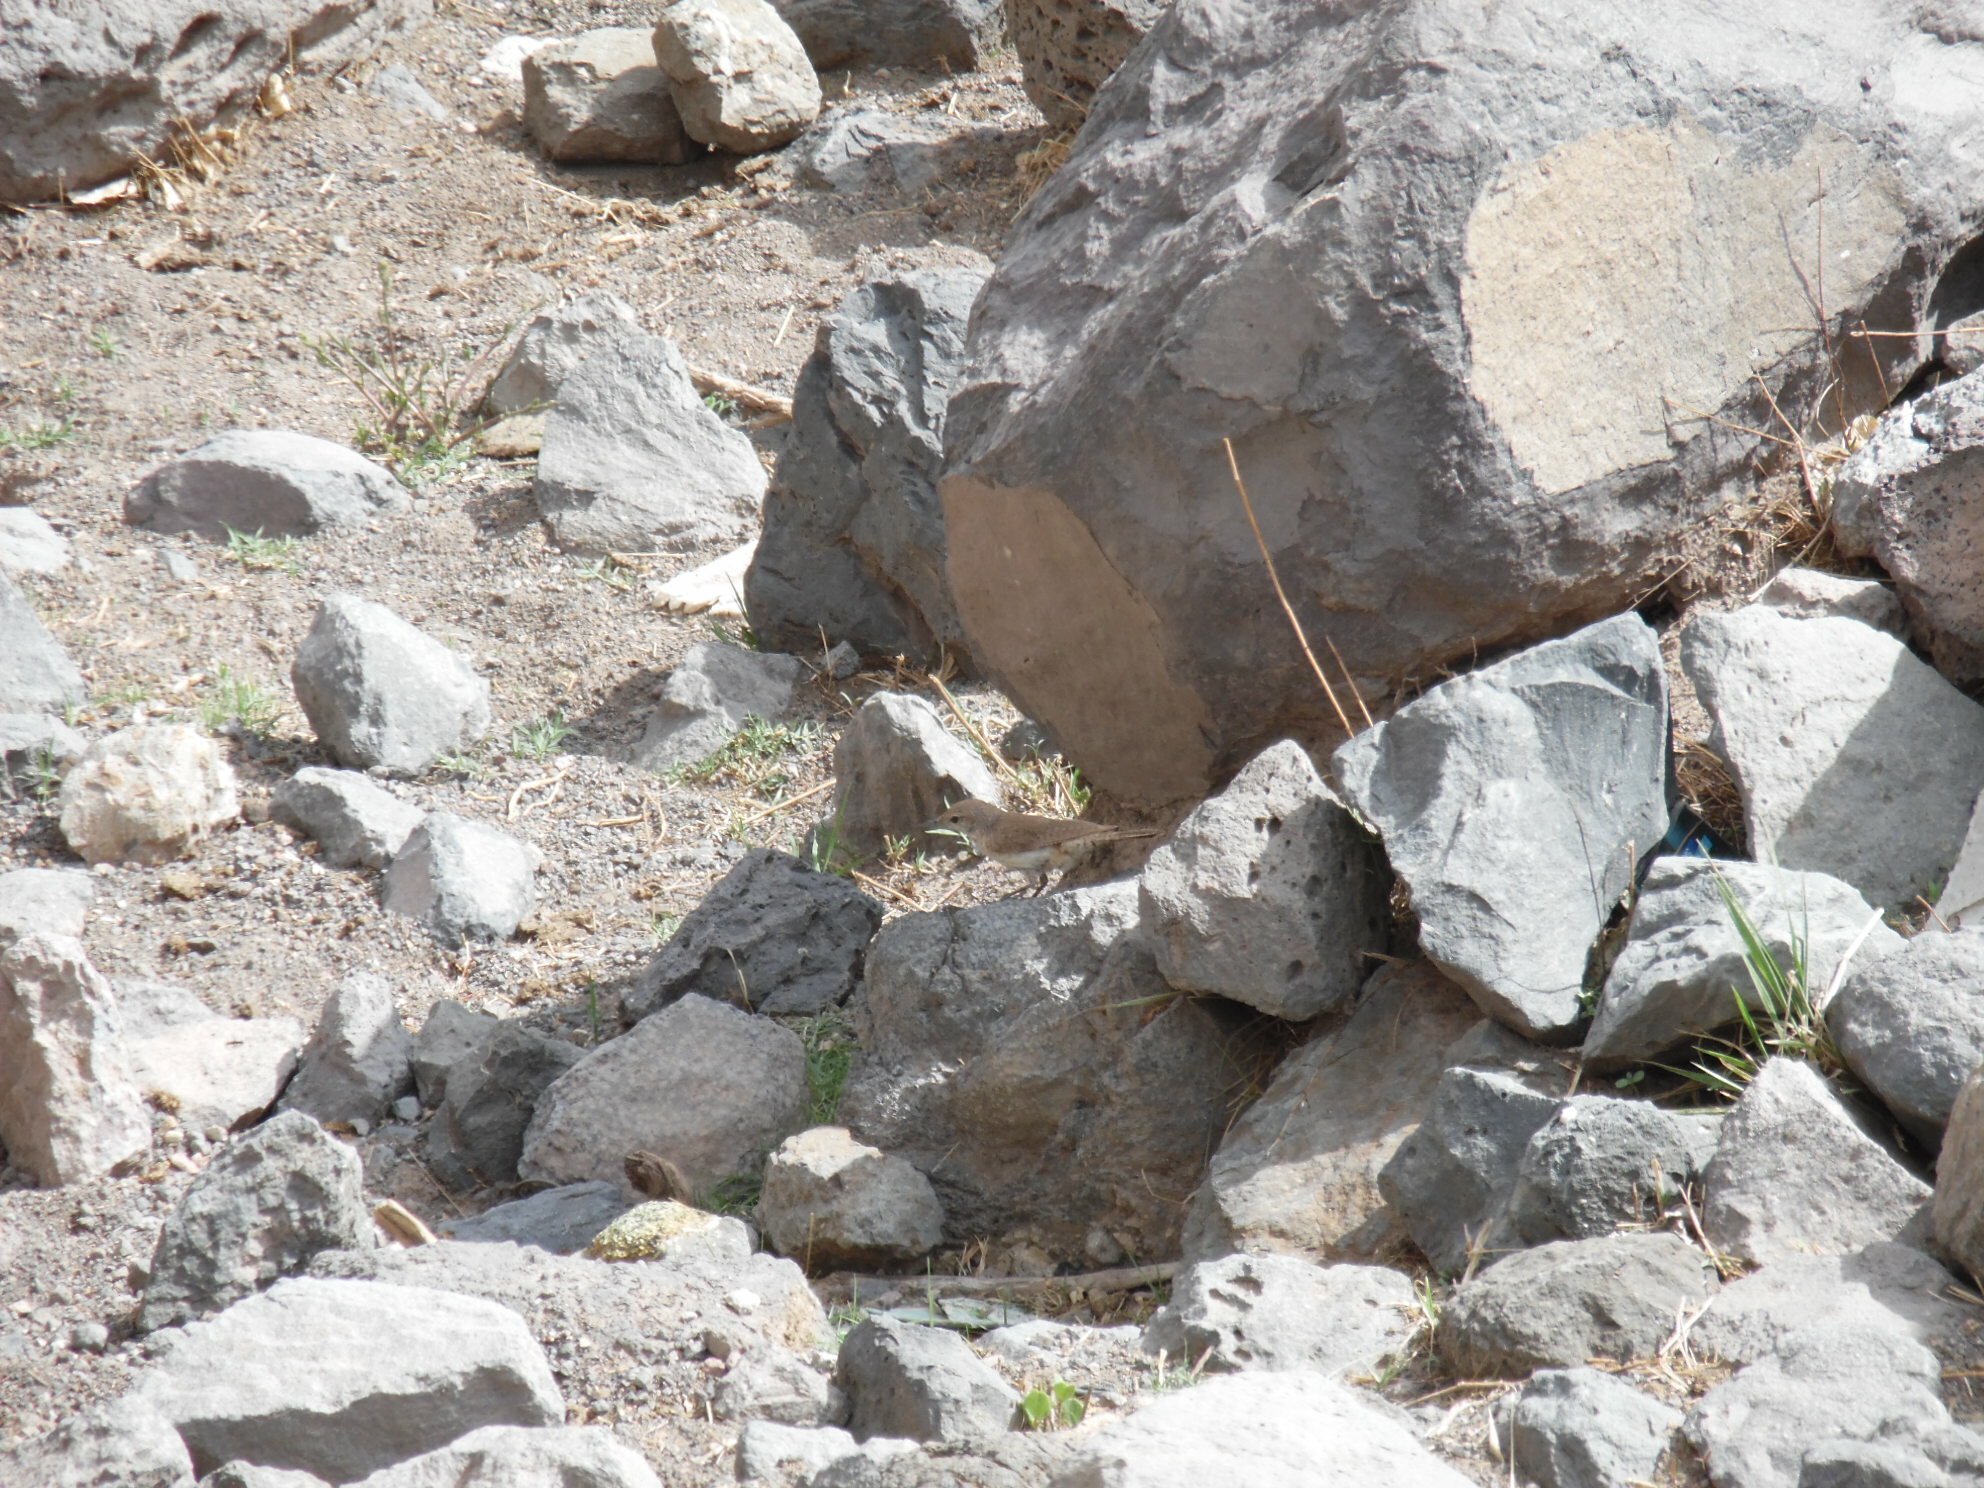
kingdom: Animalia
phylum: Chordata
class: Aves
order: Passeriformes
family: Troglodytidae
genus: Salpinctes
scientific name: Salpinctes obsoletus
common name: Rock wren
